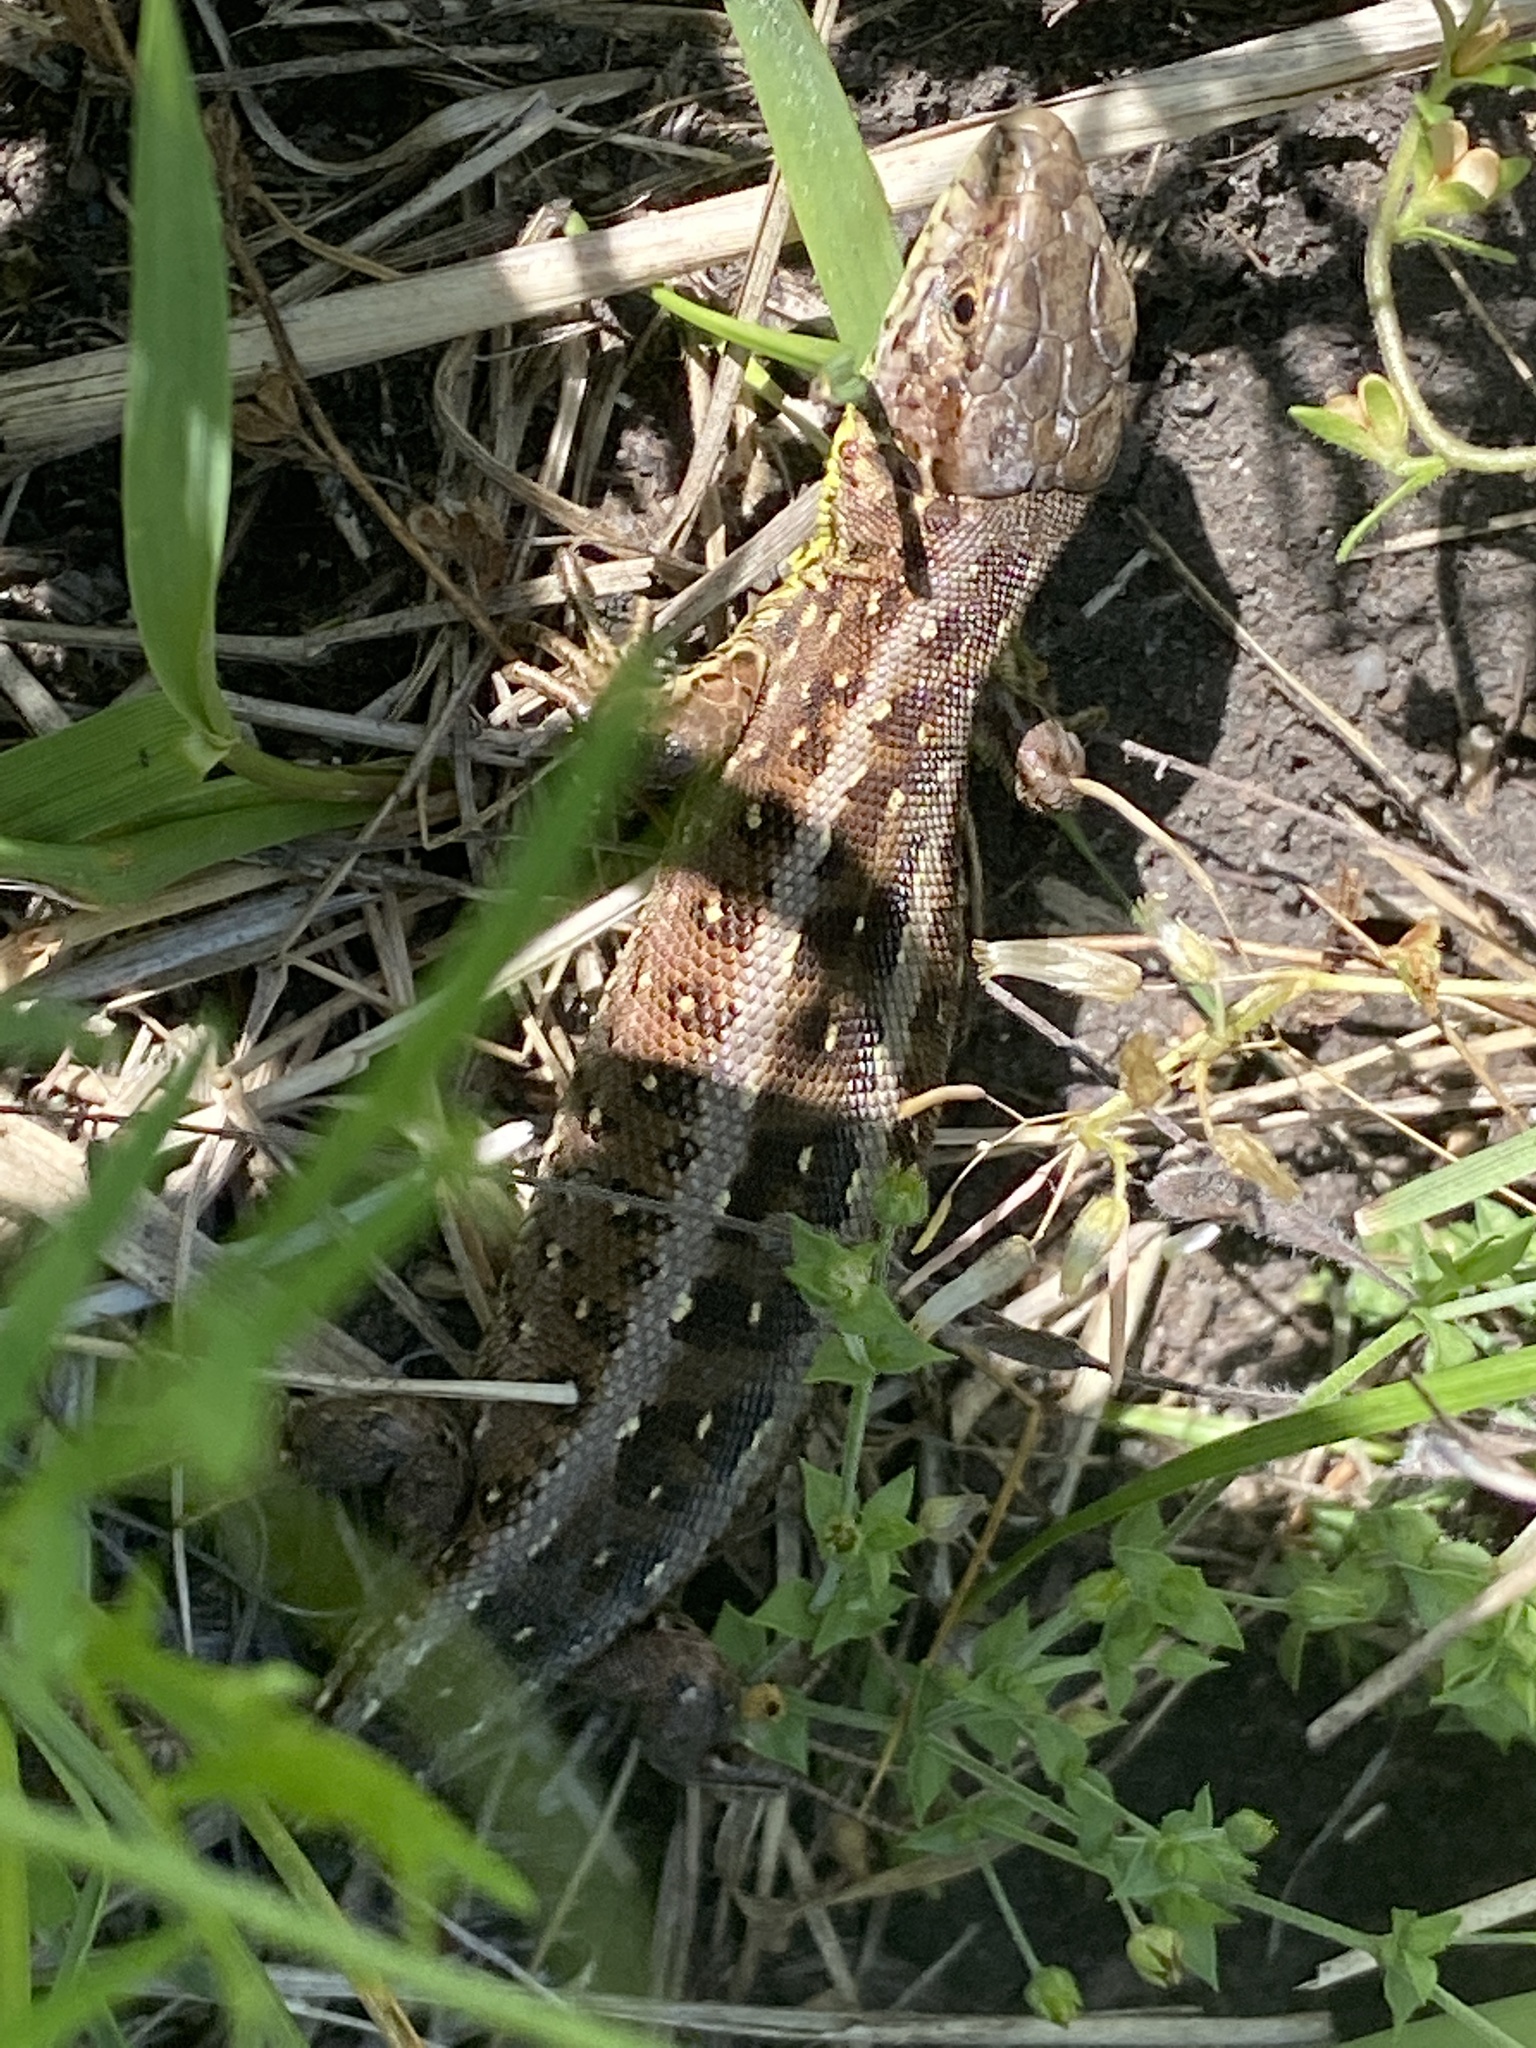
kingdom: Animalia
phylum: Chordata
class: Squamata
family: Lacertidae
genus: Lacerta
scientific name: Lacerta agilis
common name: Sand lizard
